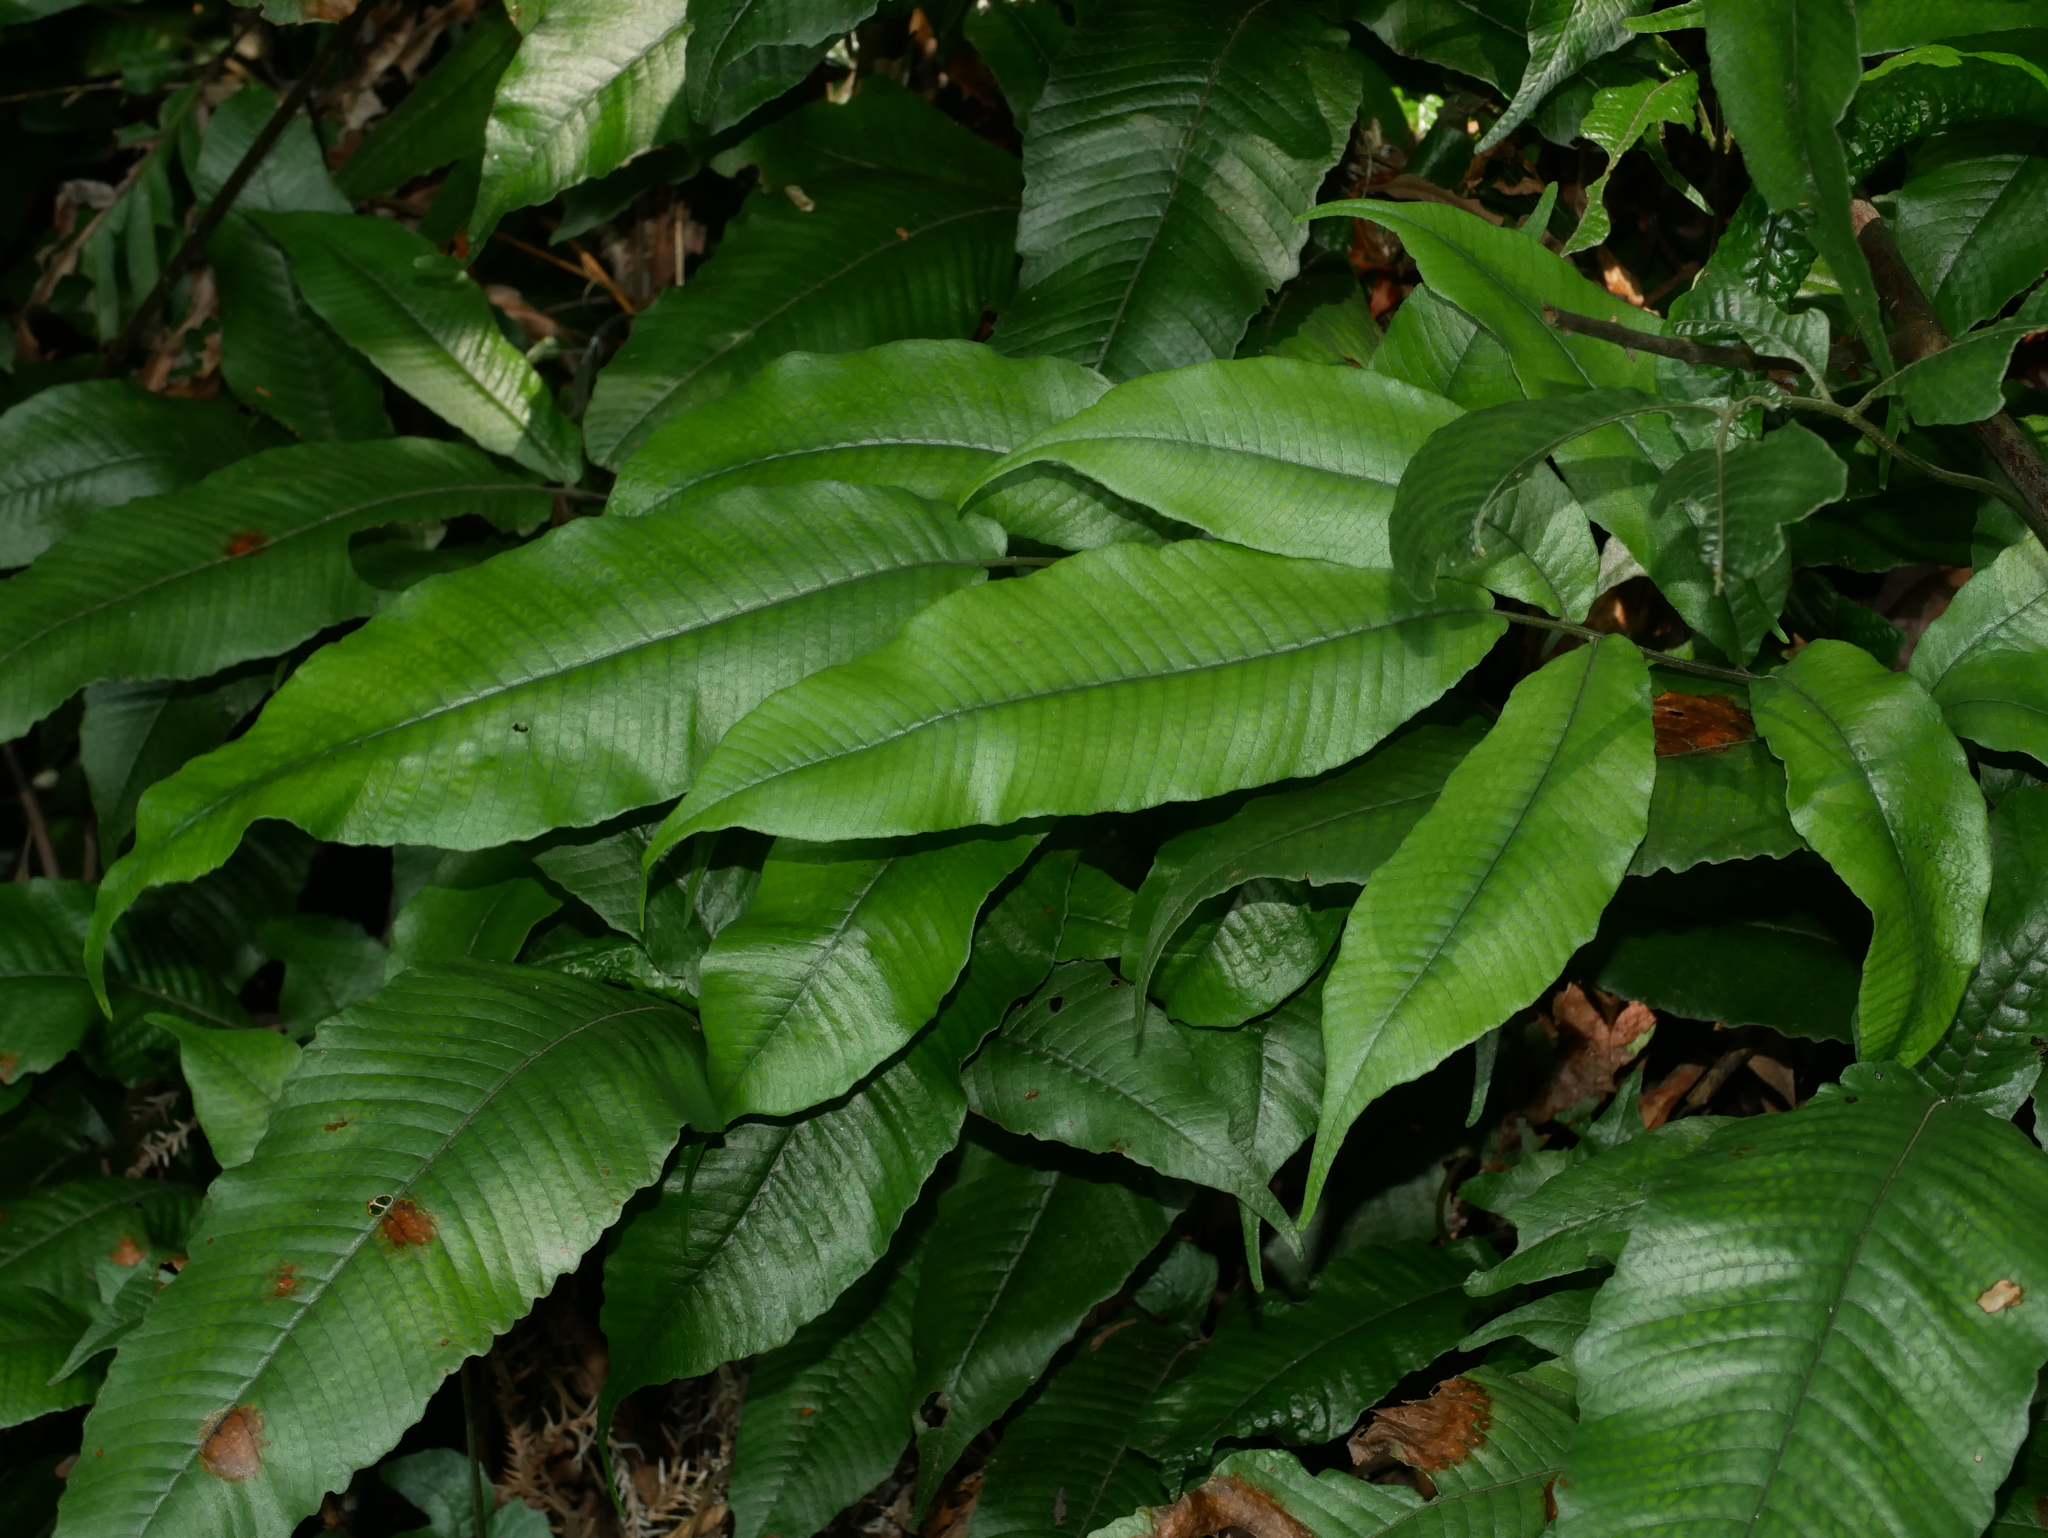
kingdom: Plantae
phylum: Tracheophyta
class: Polypodiopsida
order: Polypodiales
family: Thelypteridaceae
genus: Grypothrix
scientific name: Grypothrix longipetiolata
